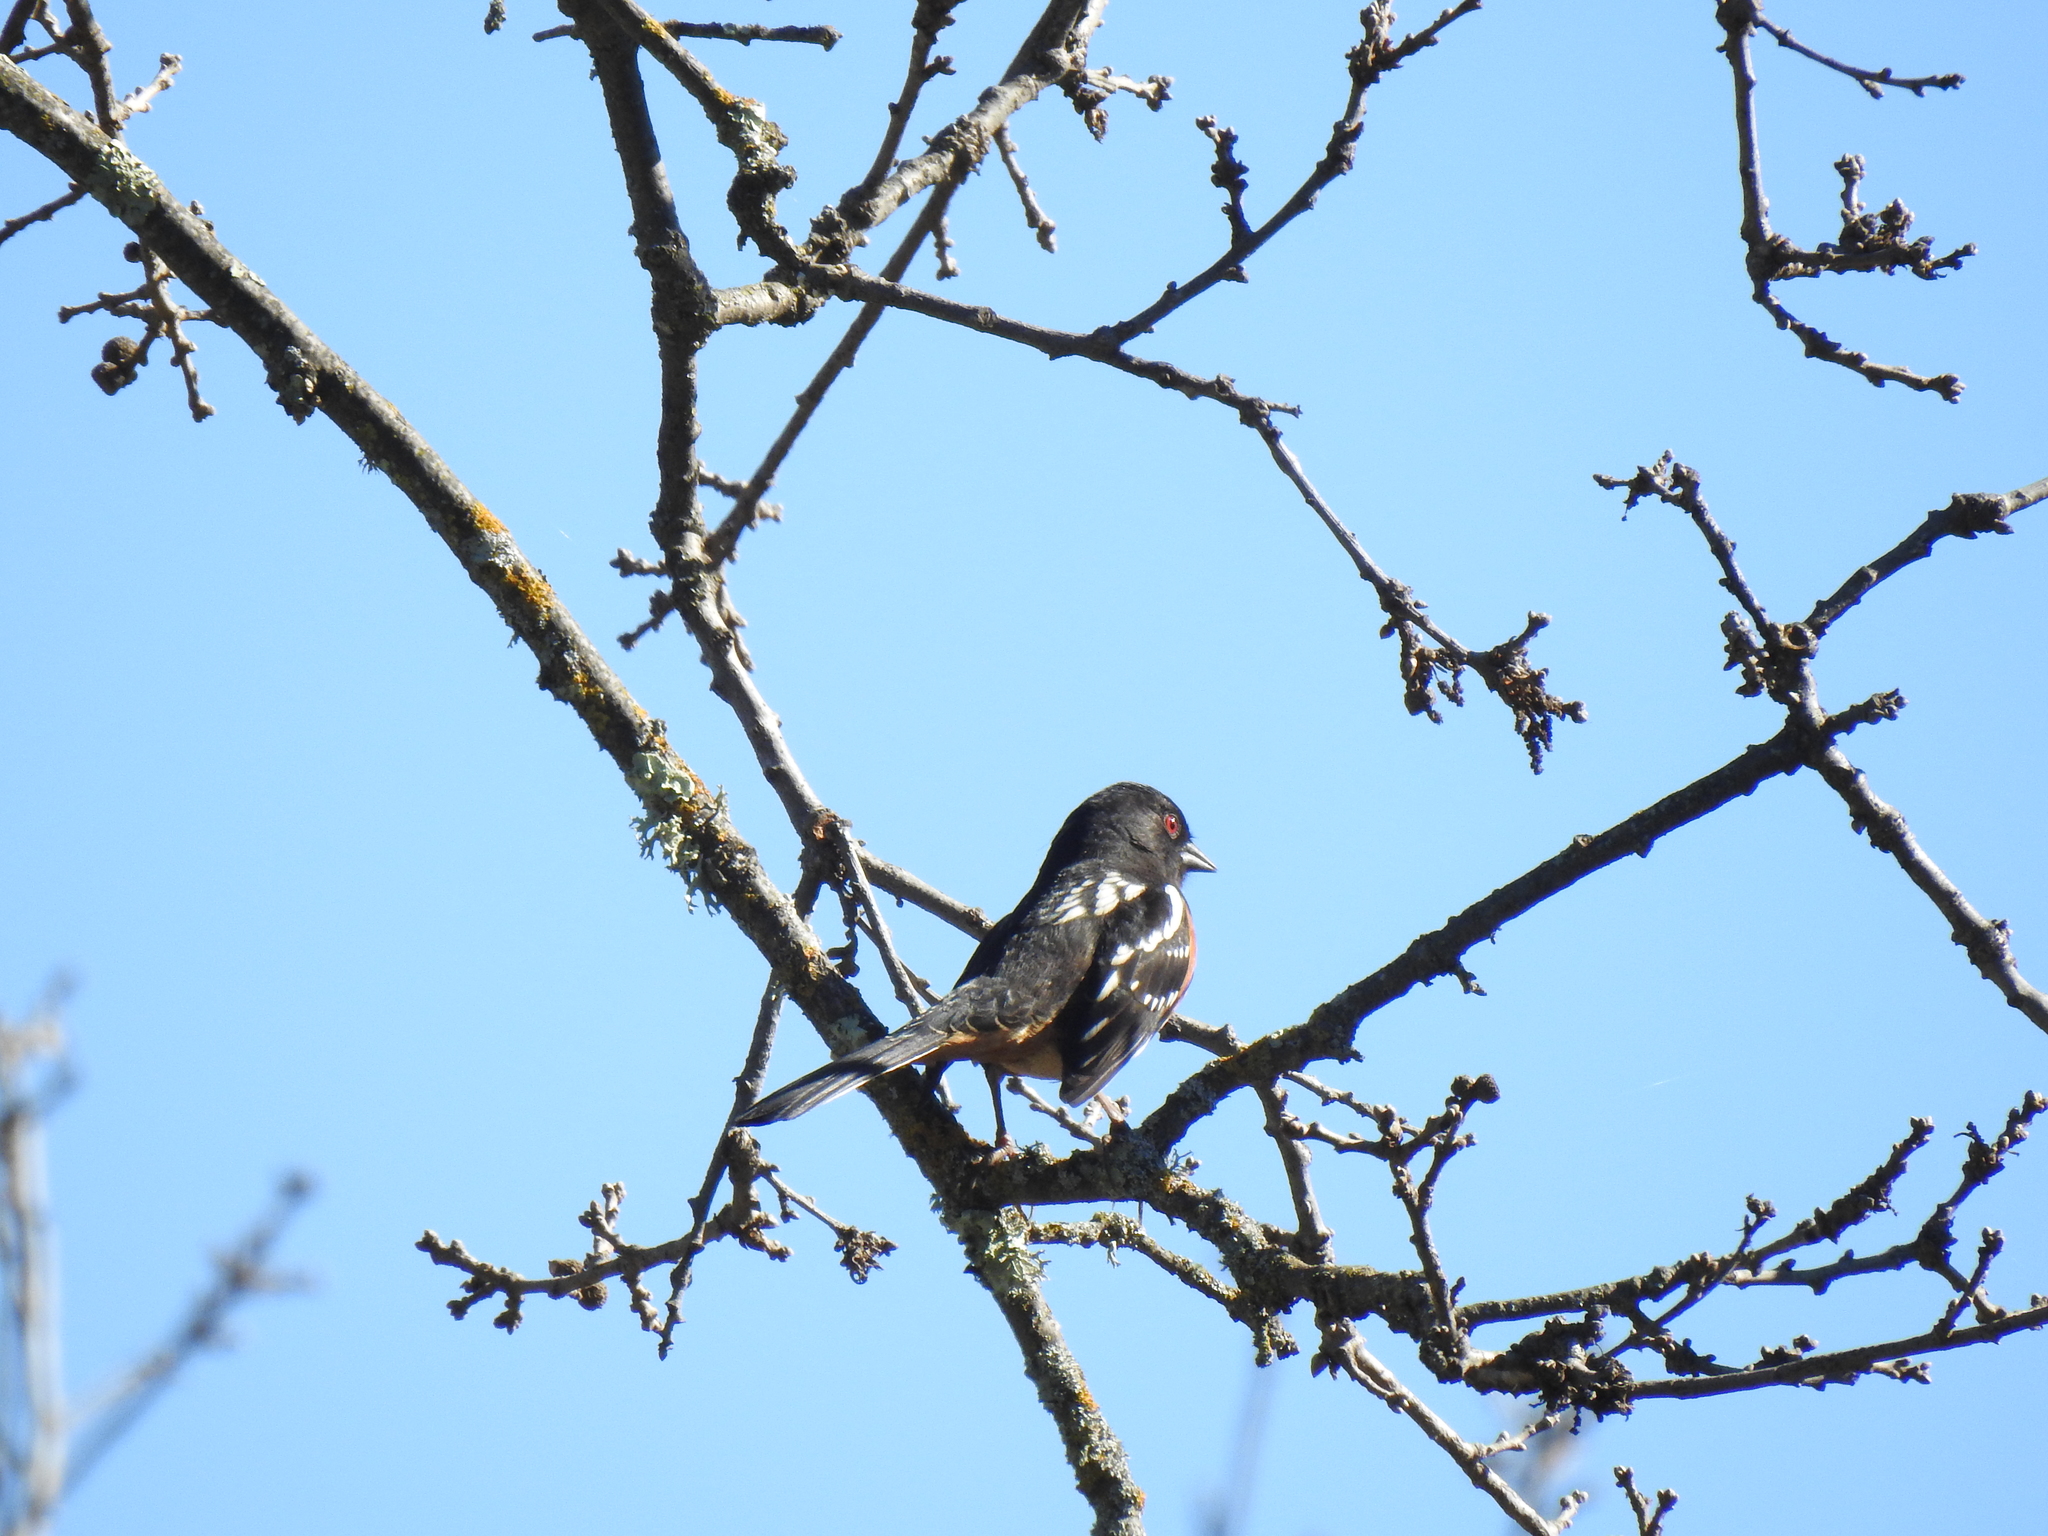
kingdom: Animalia
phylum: Chordata
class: Aves
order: Passeriformes
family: Passerellidae
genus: Pipilo
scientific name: Pipilo maculatus
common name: Spotted towhee
